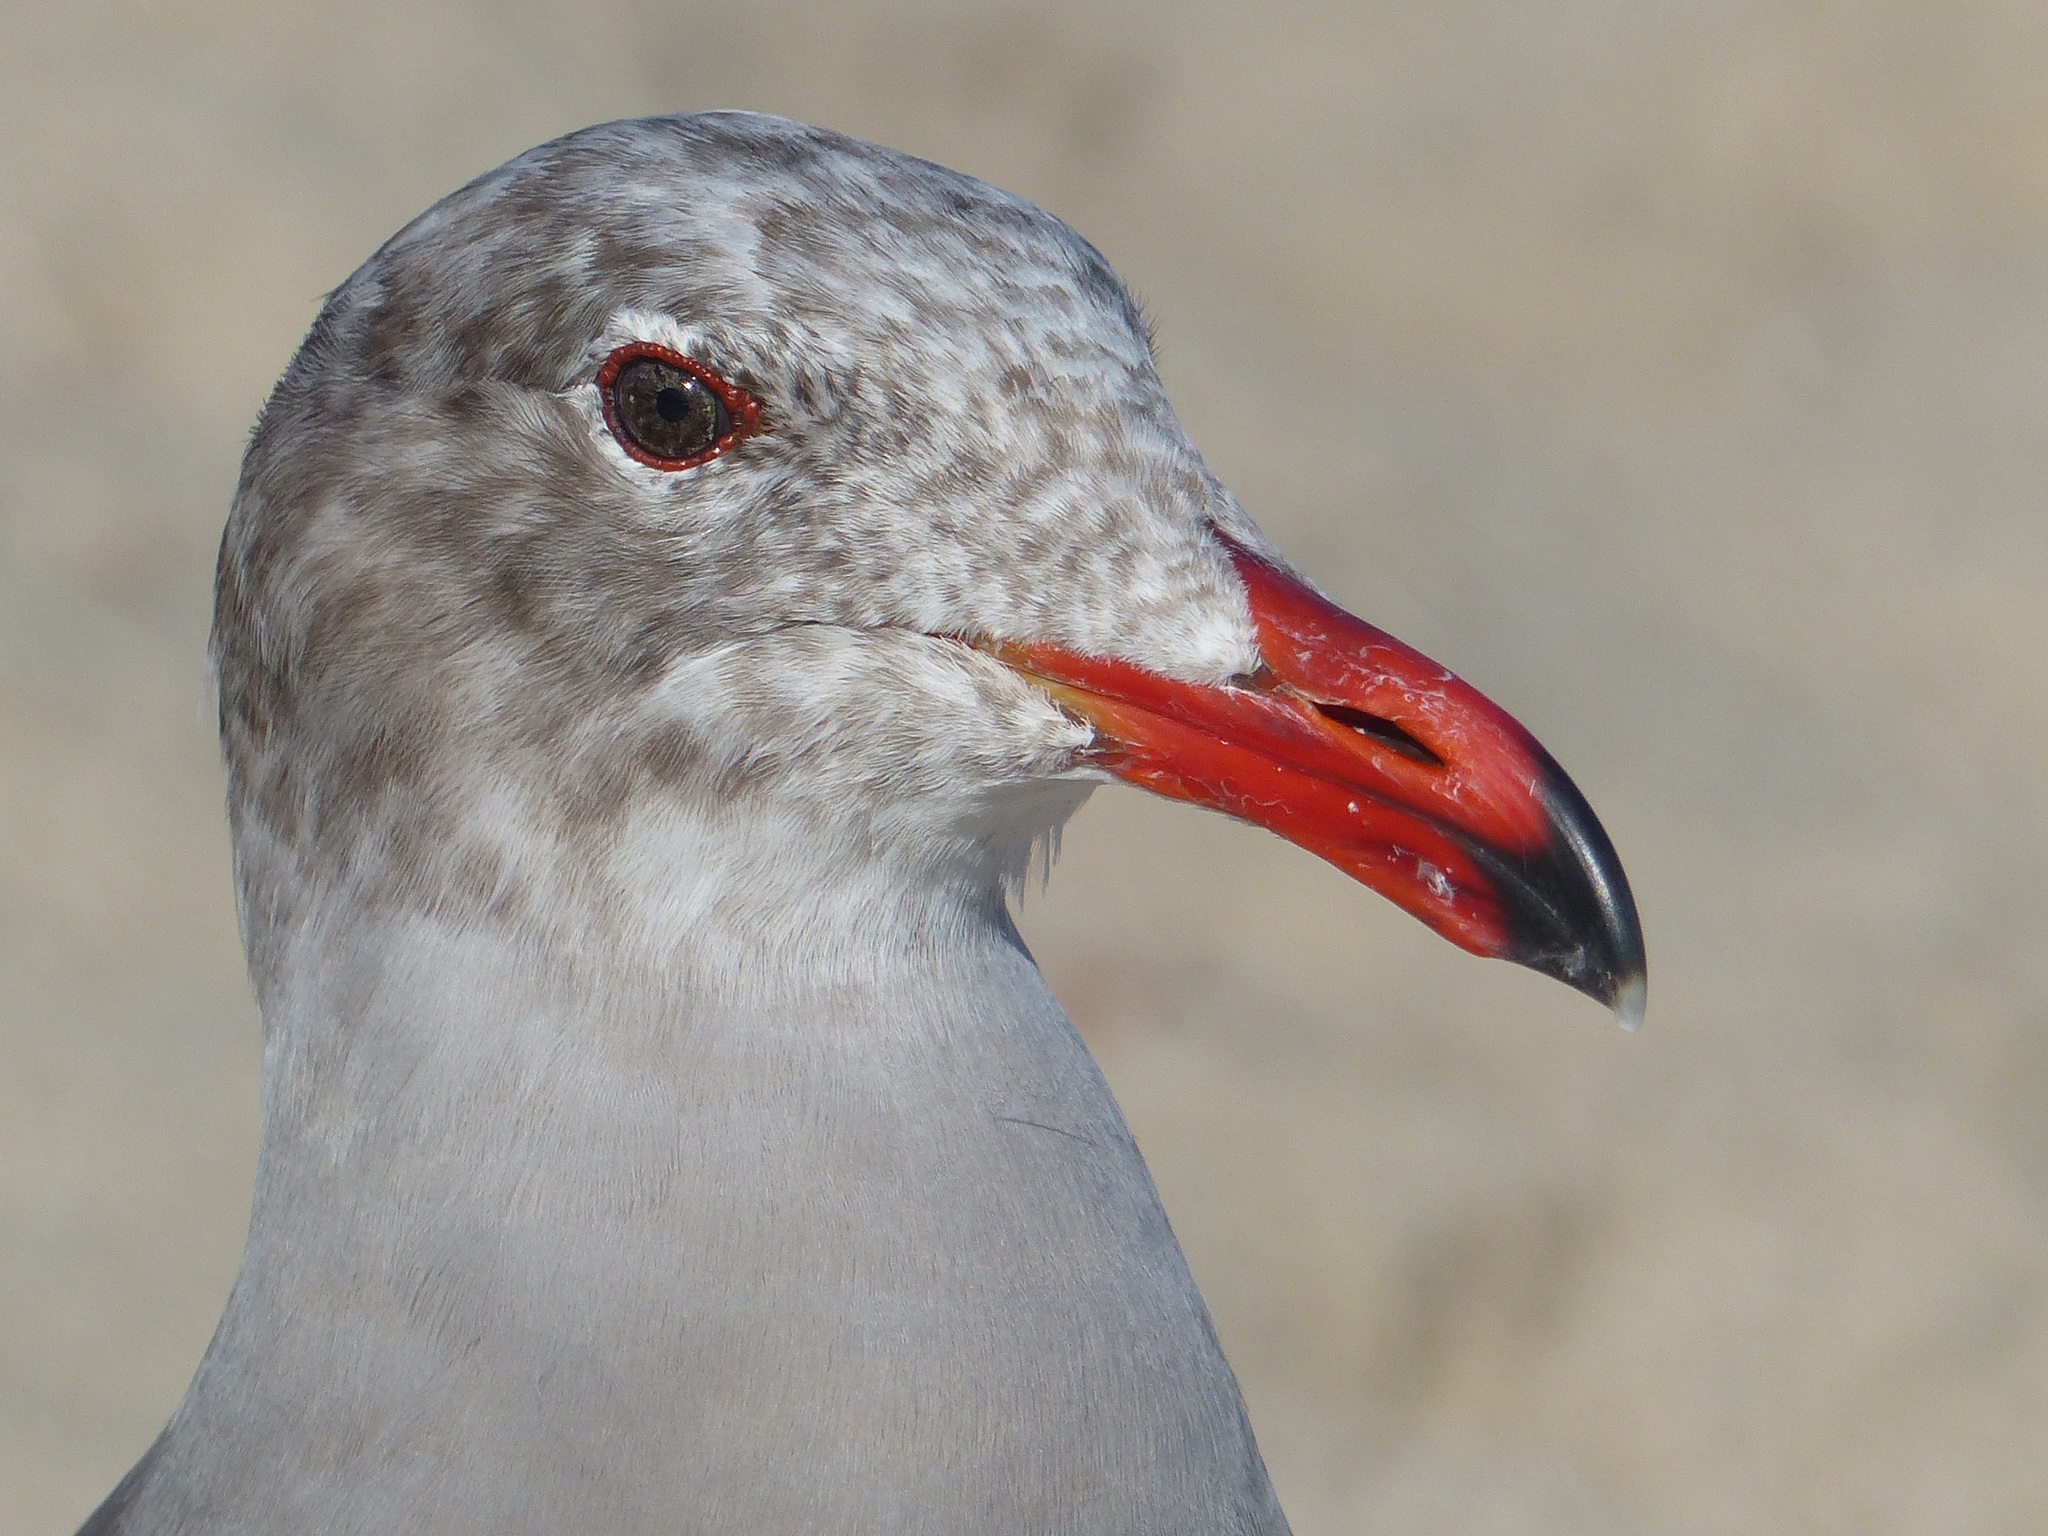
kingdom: Animalia
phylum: Chordata
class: Aves
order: Charadriiformes
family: Laridae
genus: Larus
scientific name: Larus heermanni
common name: Heermann's gull
